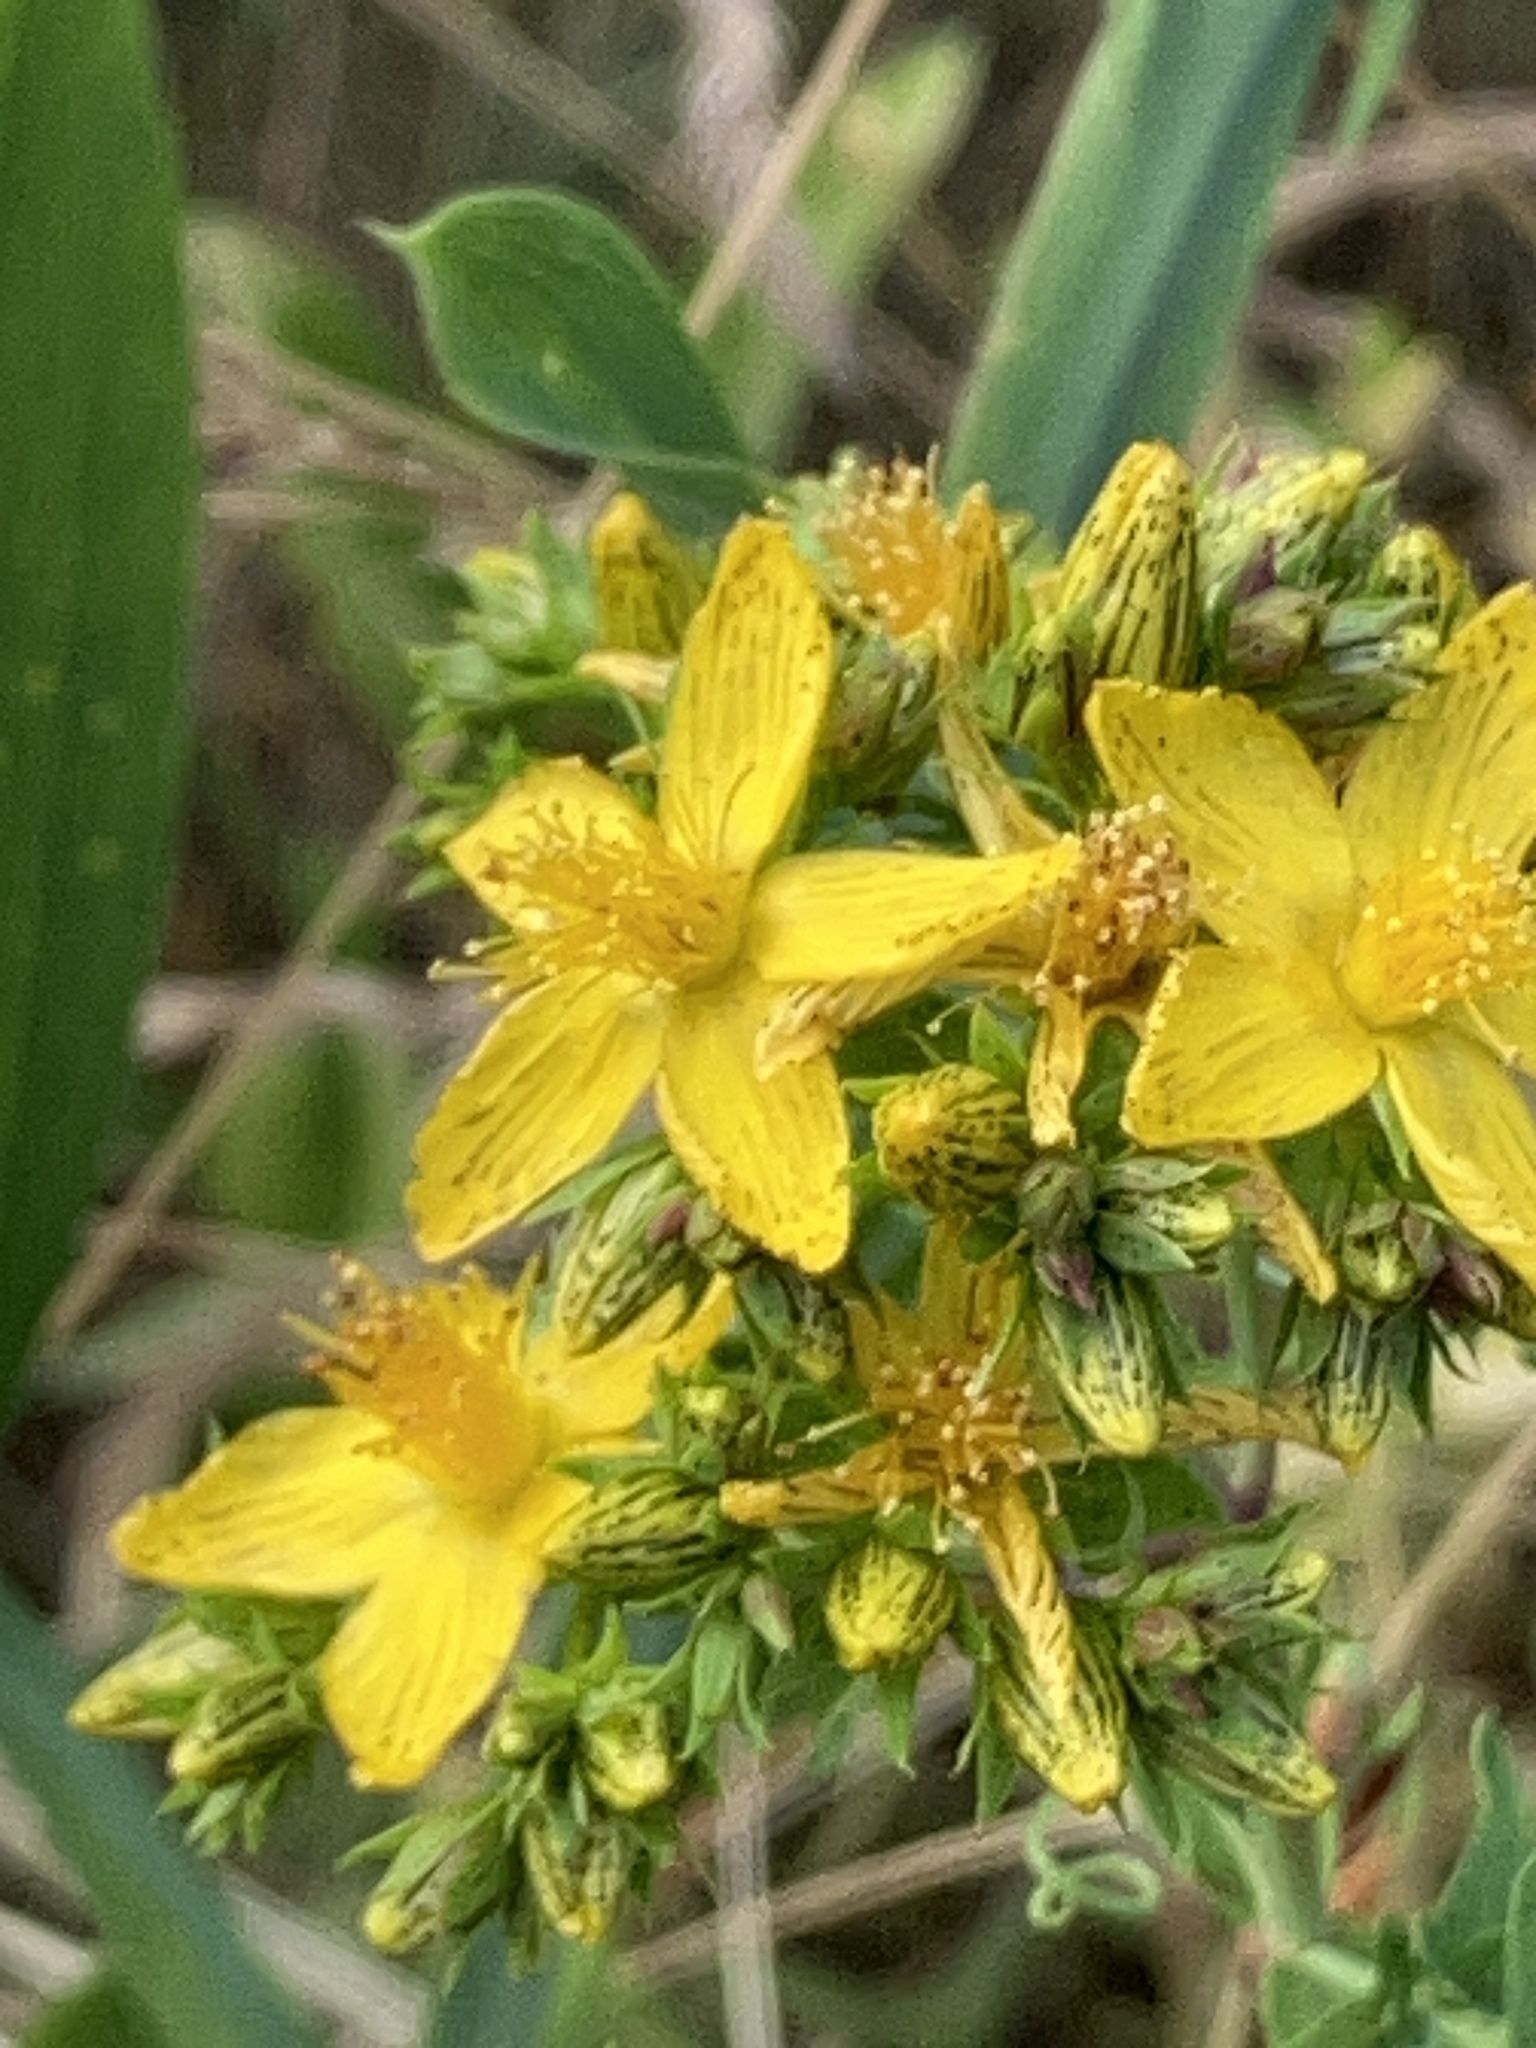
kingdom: Plantae
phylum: Tracheophyta
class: Magnoliopsida
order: Malpighiales
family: Hypericaceae
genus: Hypericum
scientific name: Hypericum perforatum
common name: Common st. johnswort
